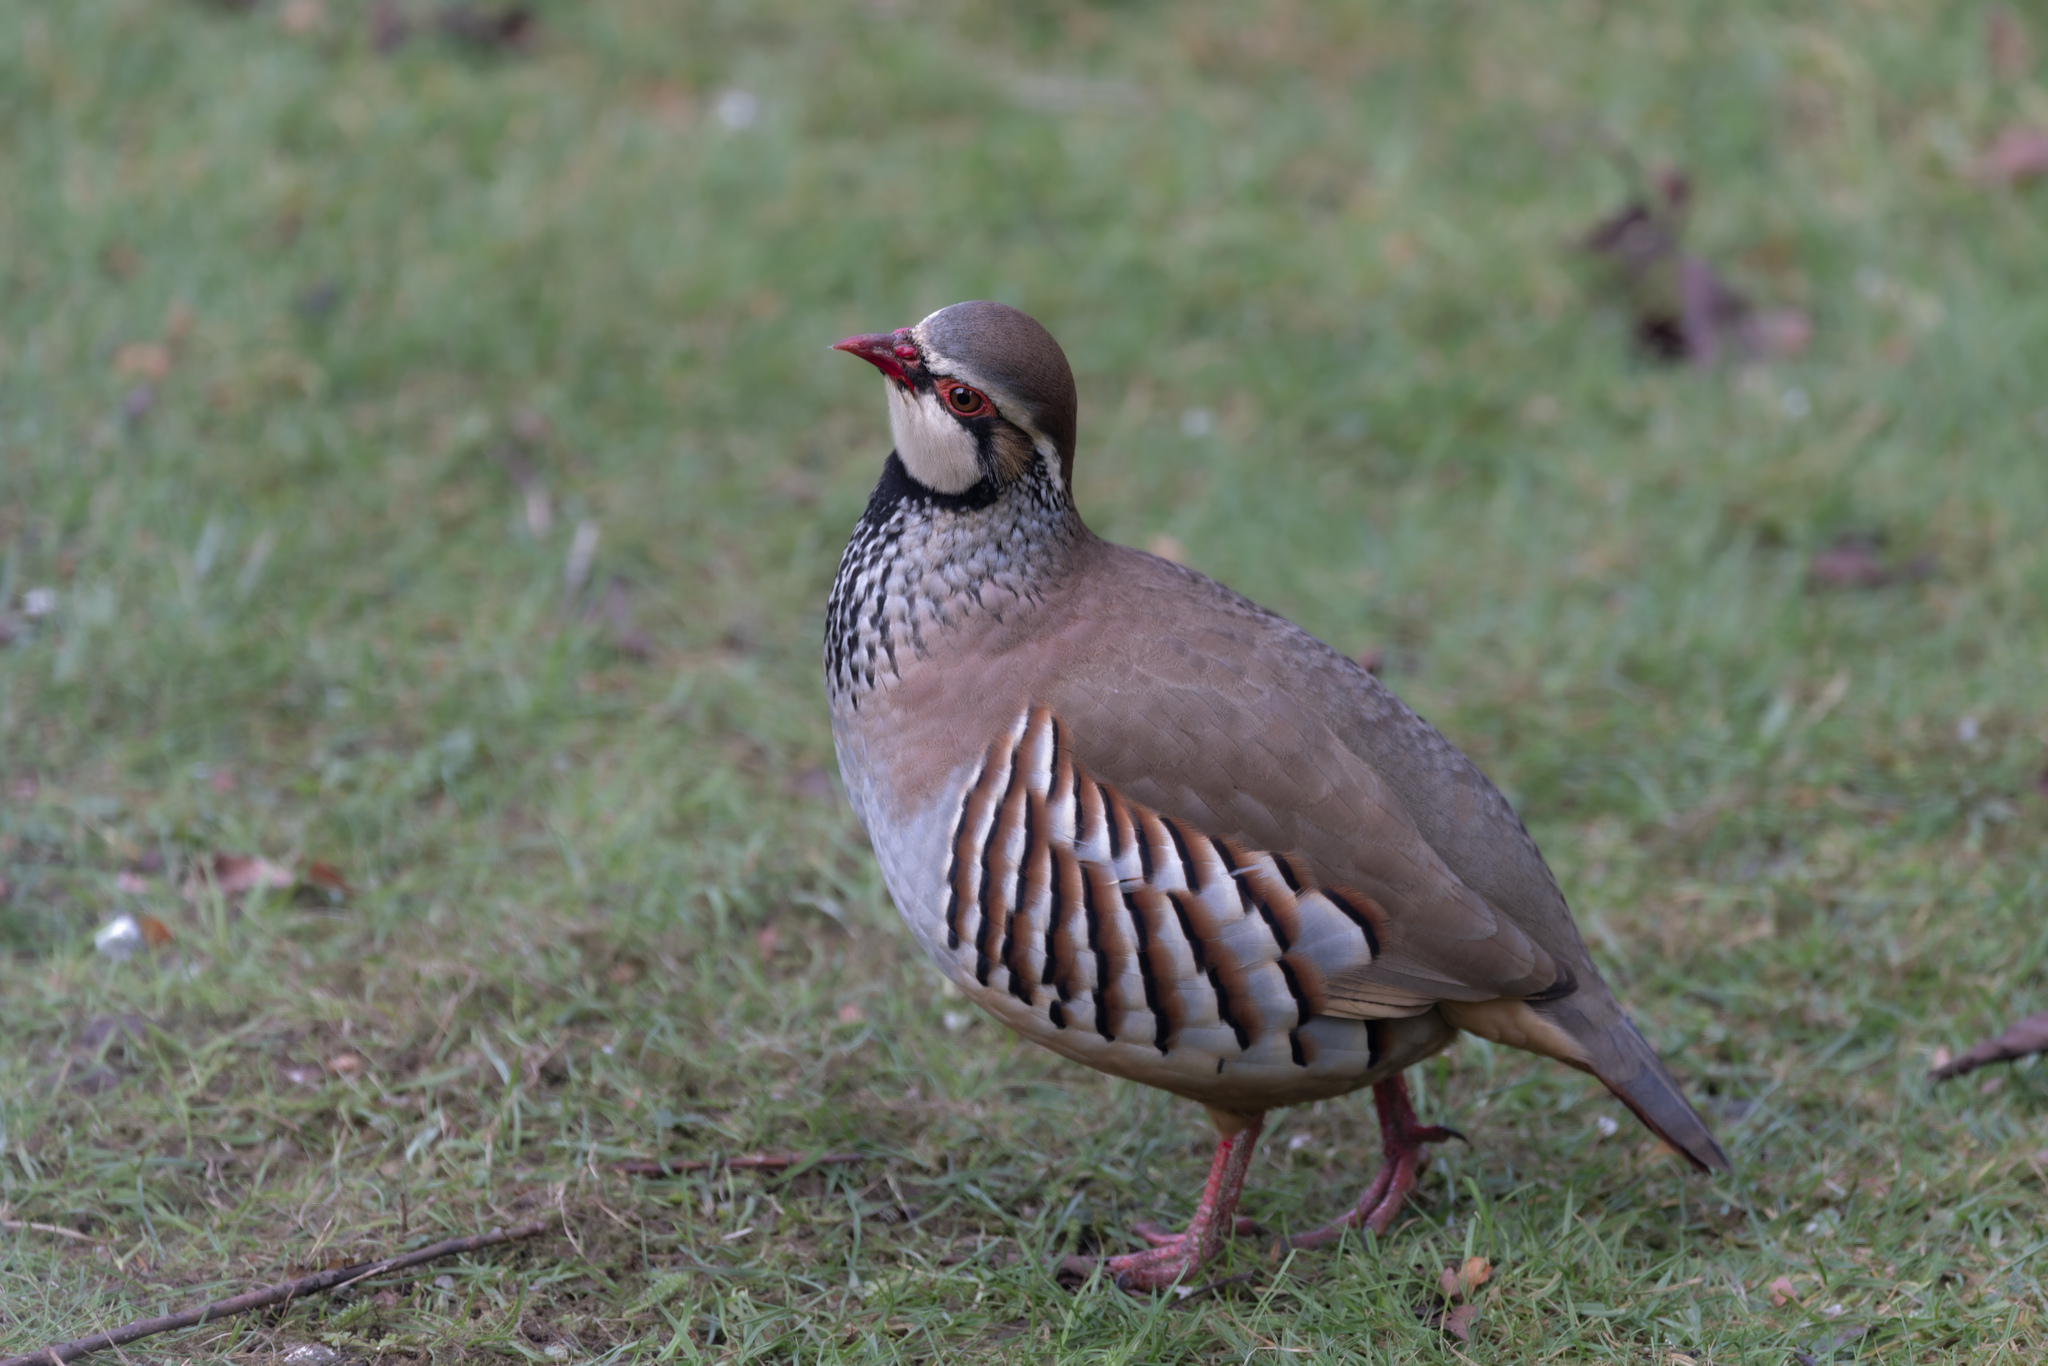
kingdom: Animalia
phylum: Chordata
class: Aves
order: Galliformes
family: Phasianidae
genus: Alectoris
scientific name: Alectoris rufa
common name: Red-legged partridge
